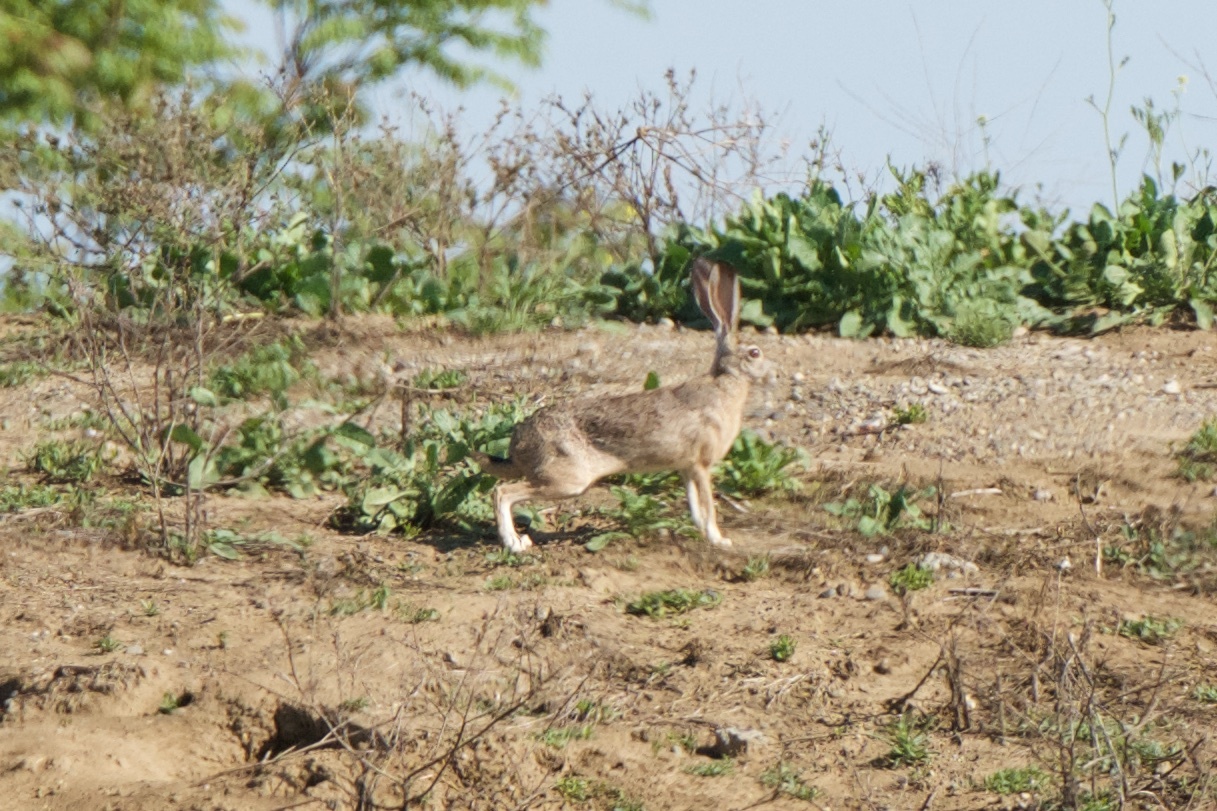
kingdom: Animalia
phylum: Chordata
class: Mammalia
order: Lagomorpha
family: Leporidae
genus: Lepus
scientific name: Lepus californicus
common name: Black-tailed jackrabbit
